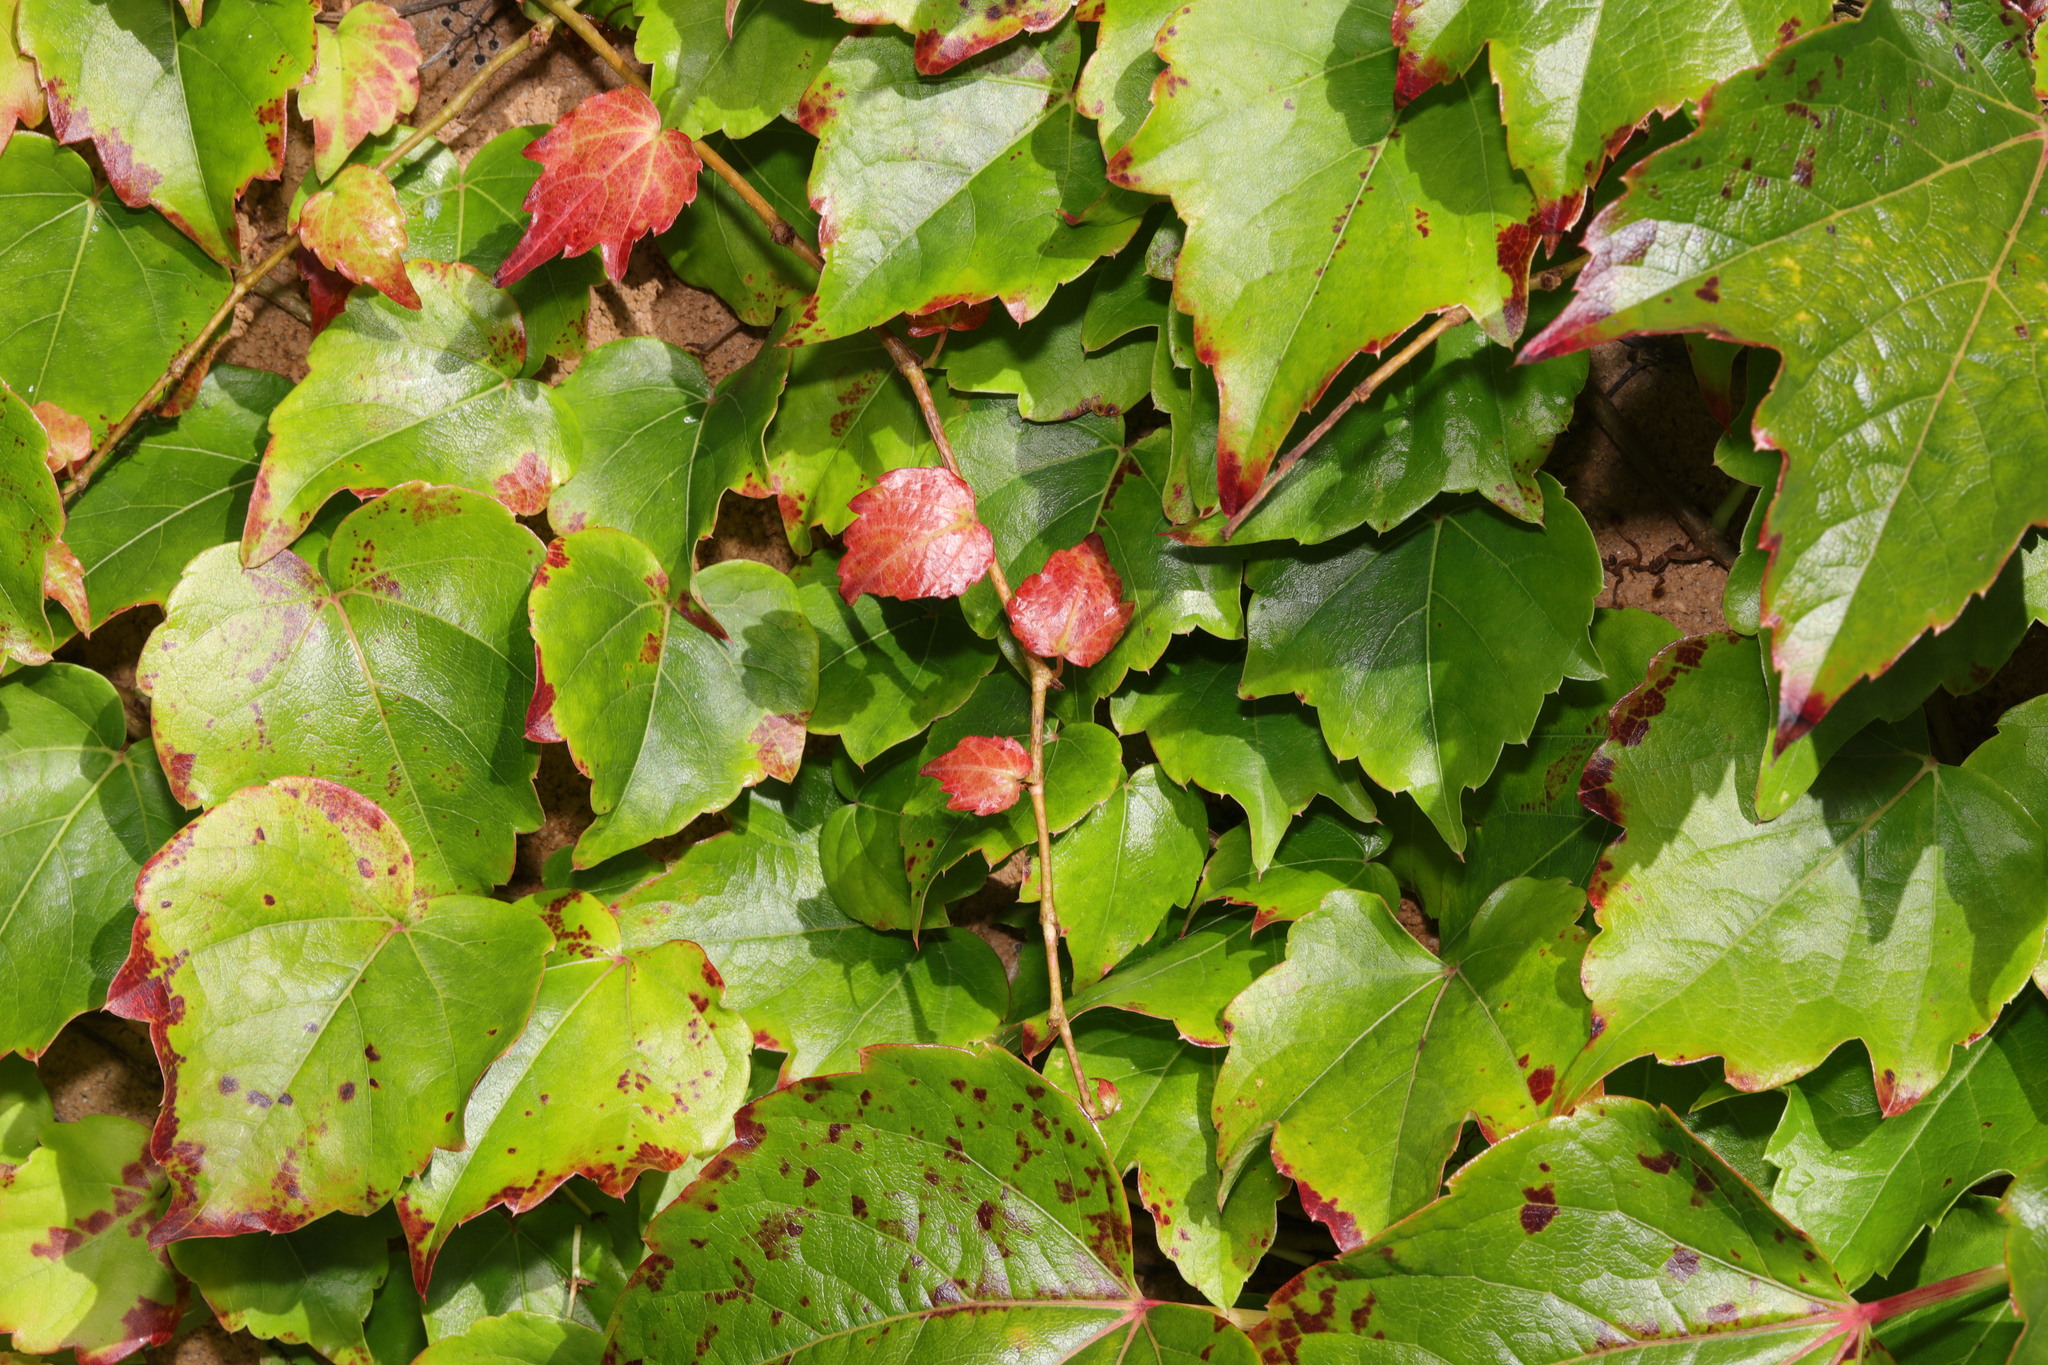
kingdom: Plantae
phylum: Tracheophyta
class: Magnoliopsida
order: Vitales
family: Vitaceae
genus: Parthenocissus
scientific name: Parthenocissus tricuspidata
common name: Boston ivy
